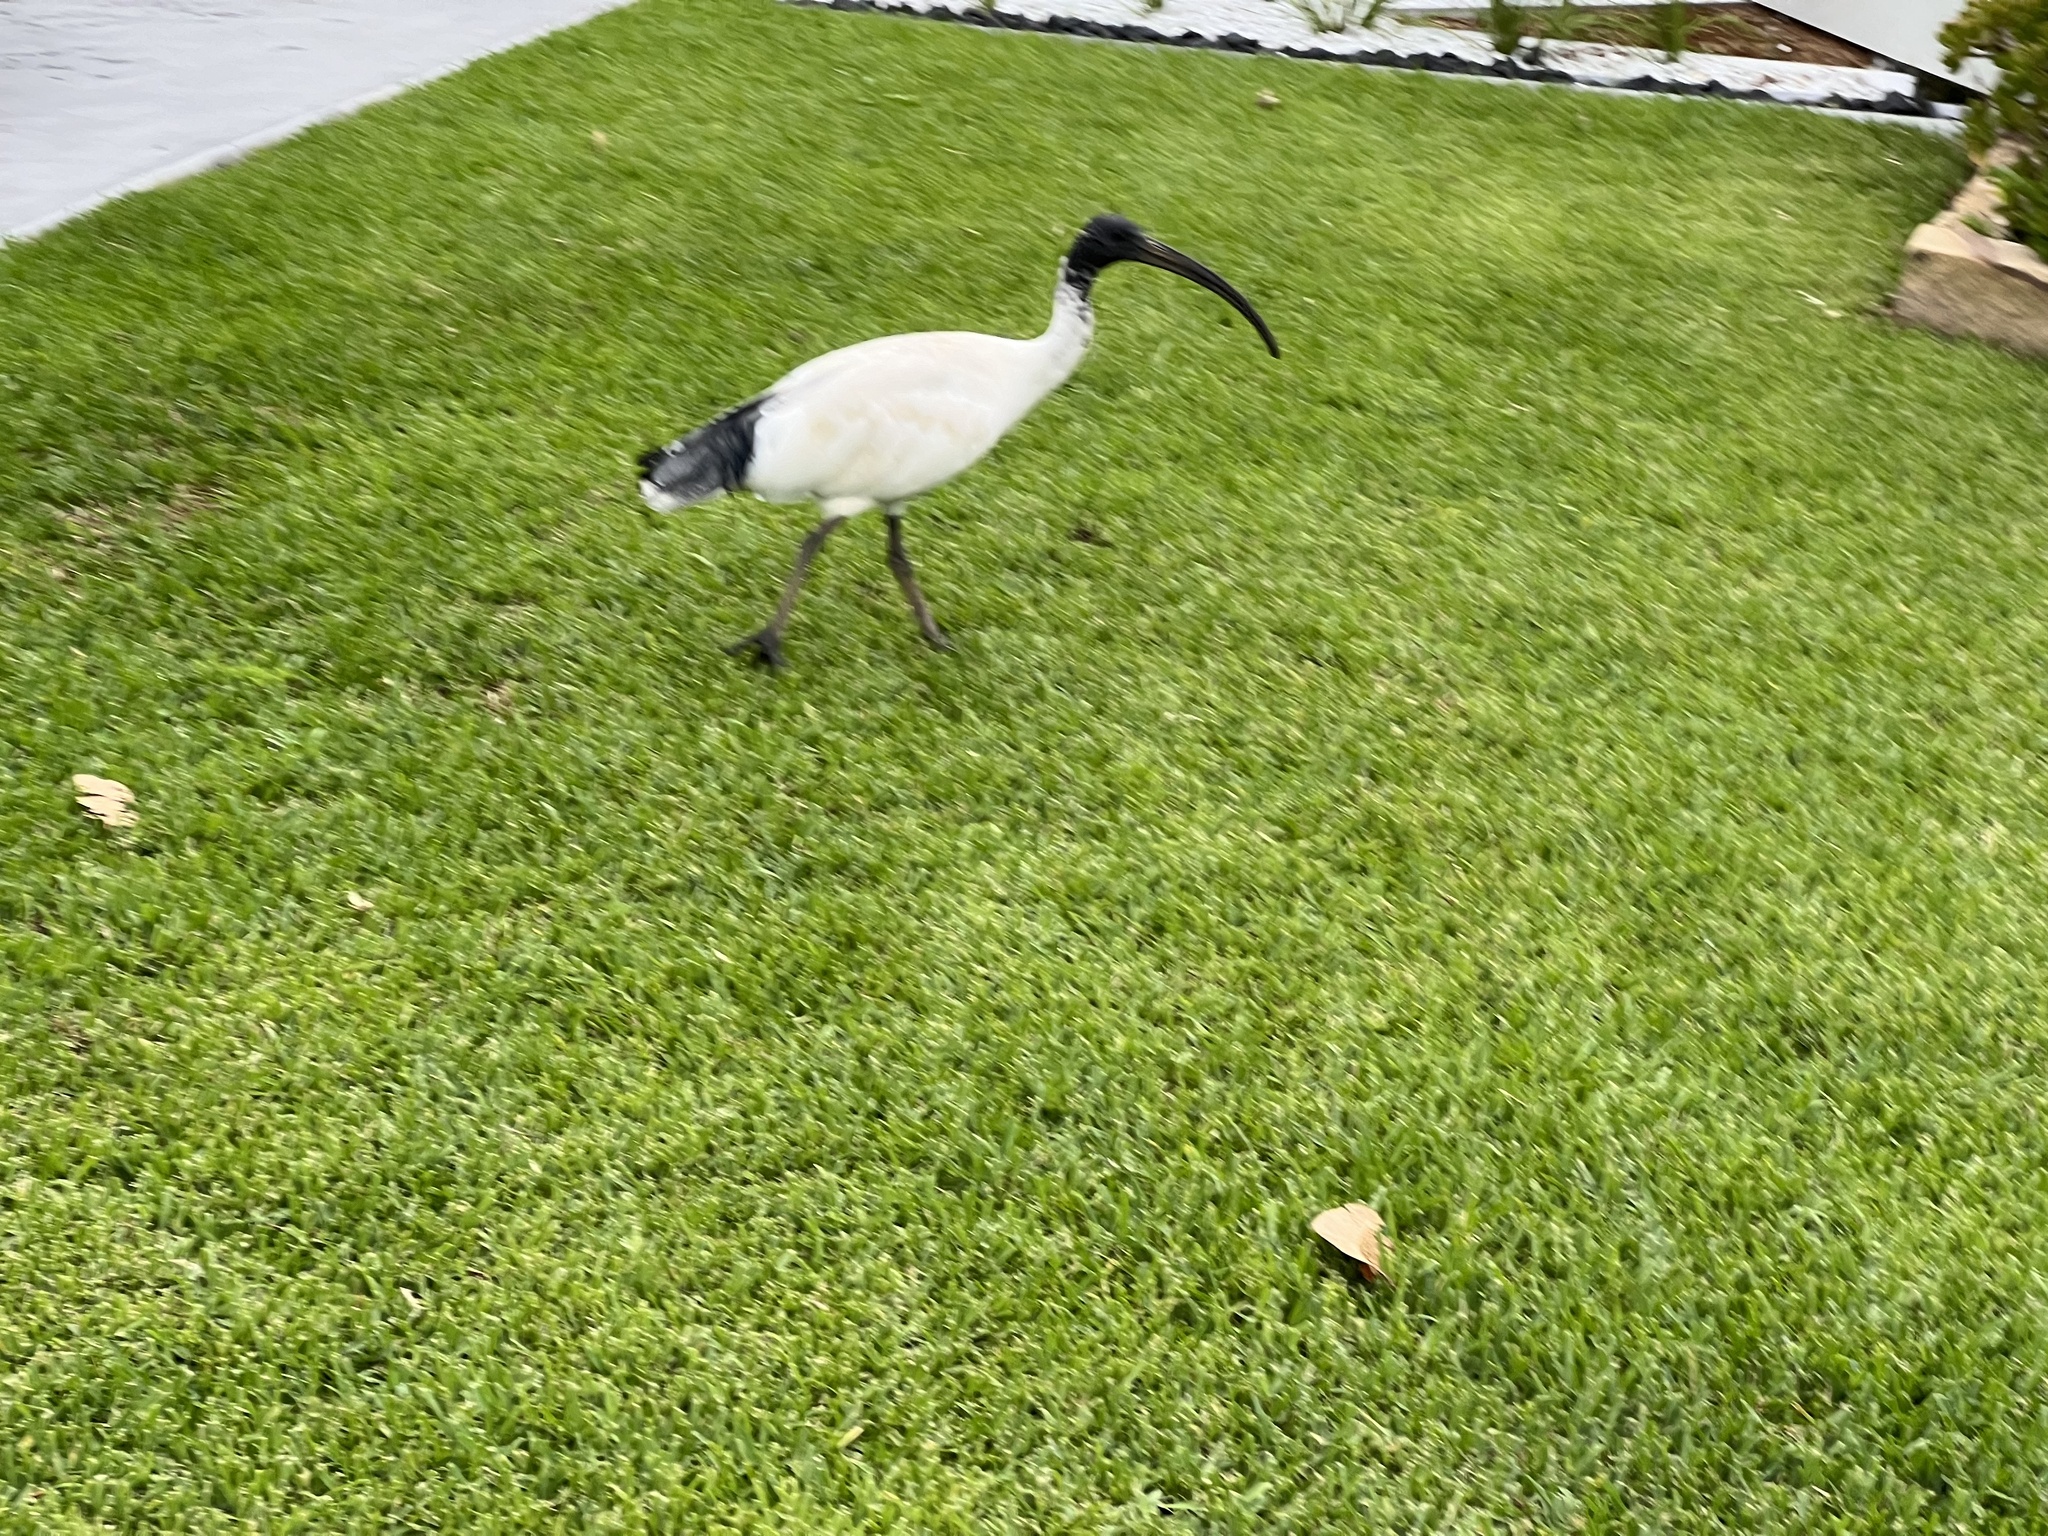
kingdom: Animalia
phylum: Chordata
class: Aves
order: Pelecaniformes
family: Threskiornithidae
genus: Threskiornis
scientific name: Threskiornis molucca
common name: Australian white ibis
